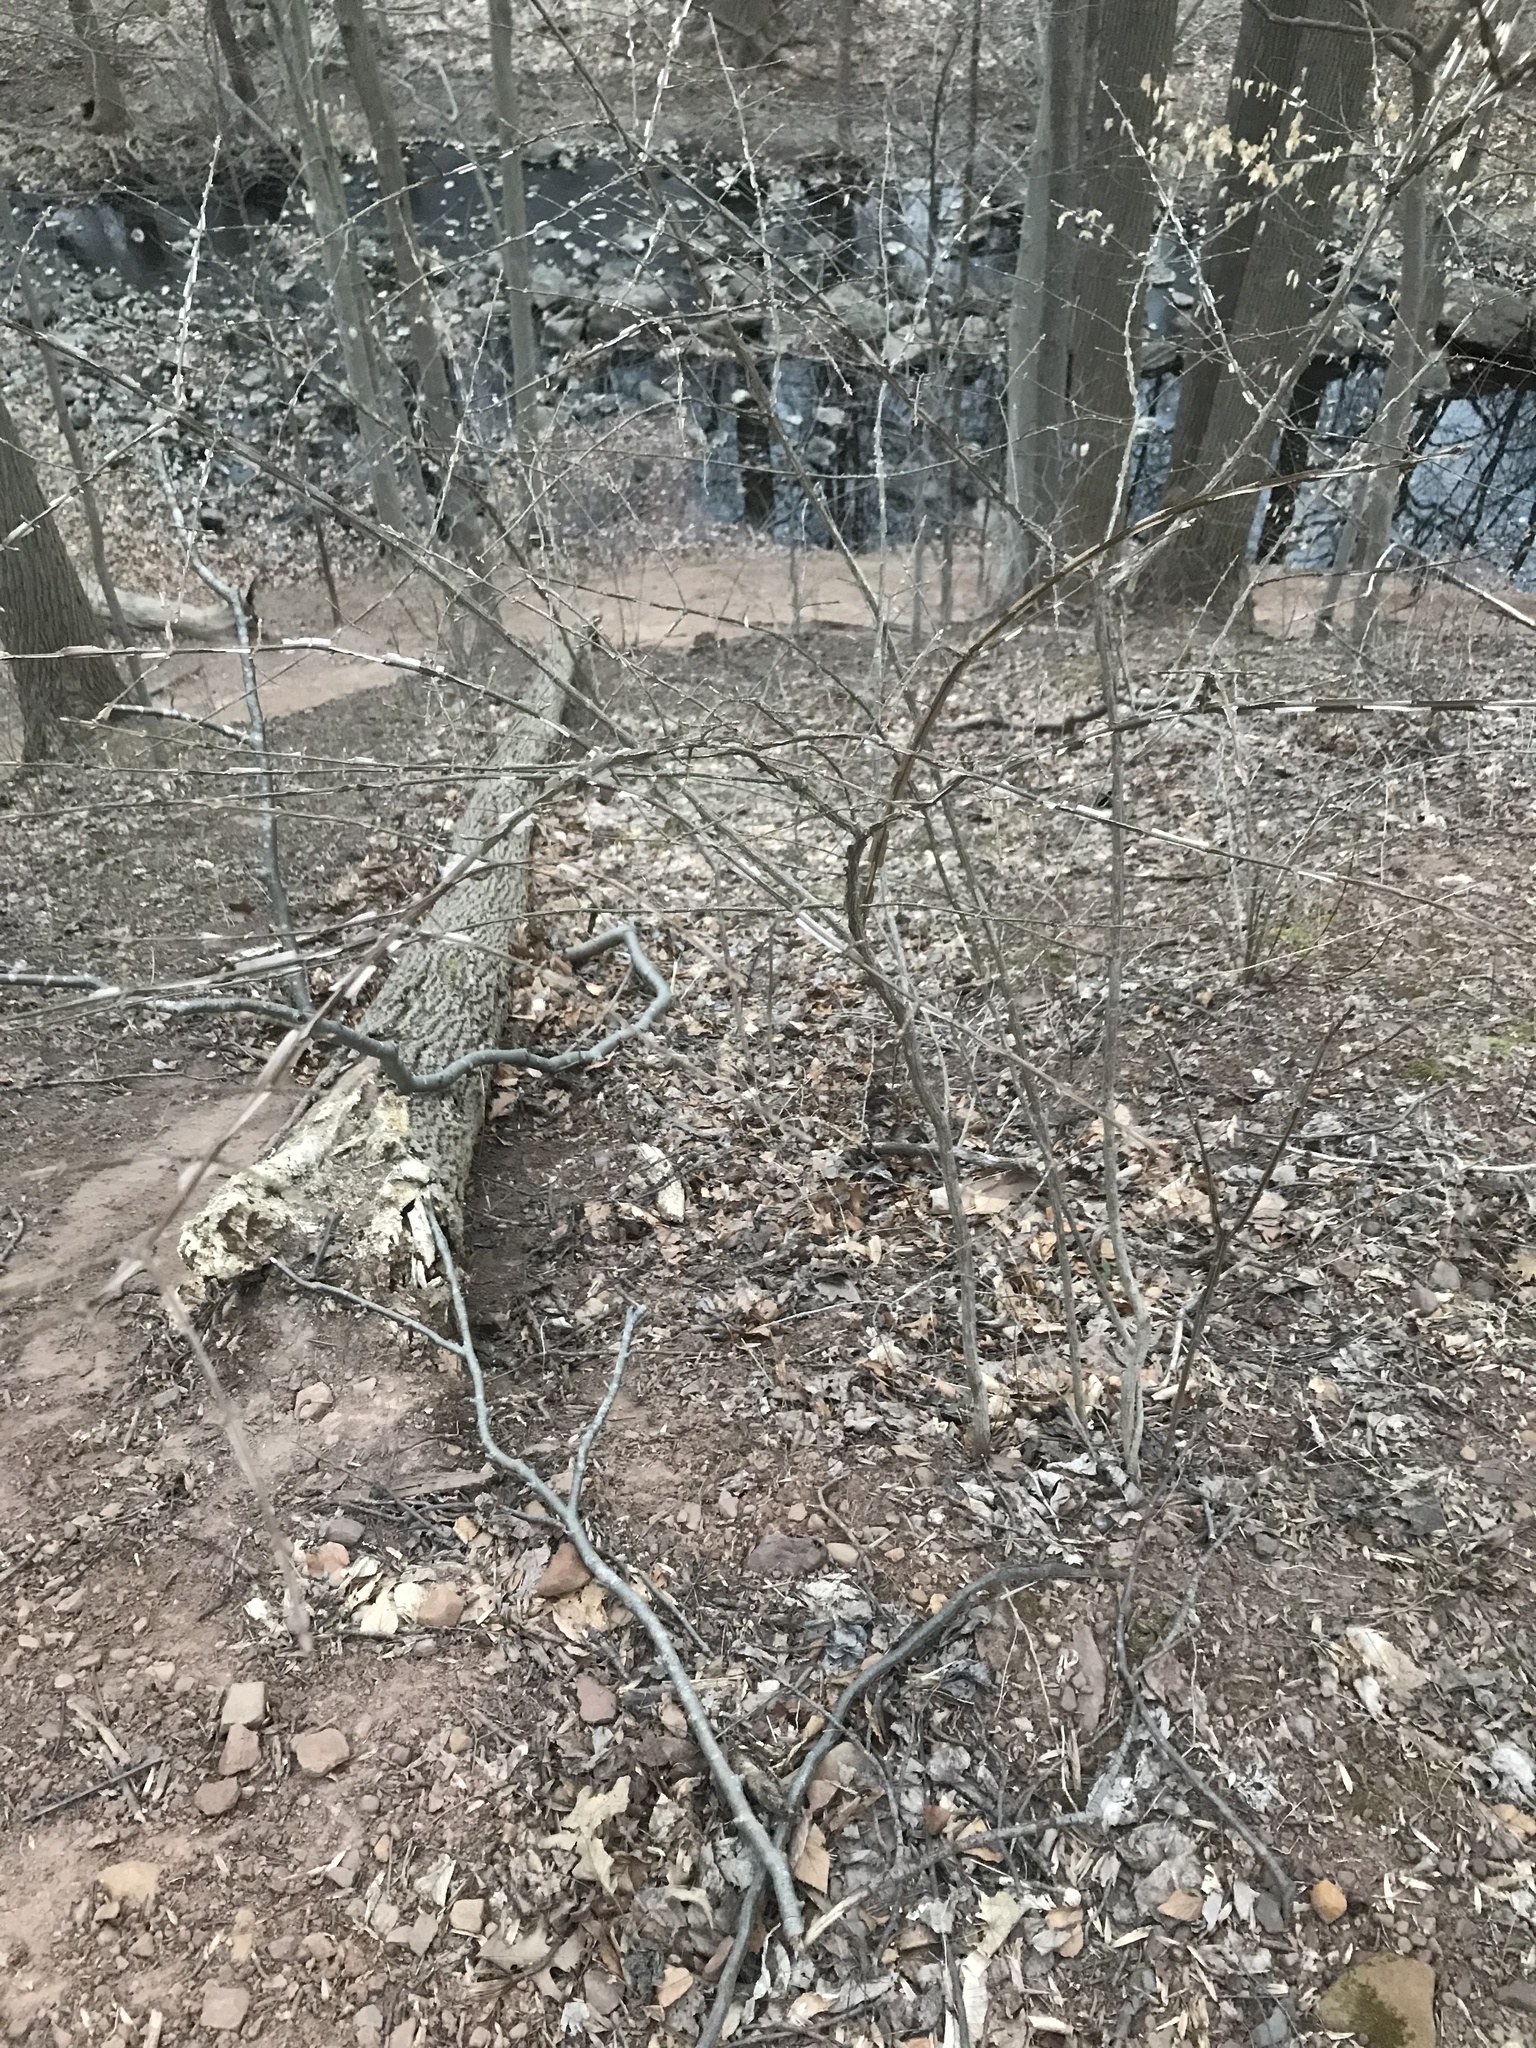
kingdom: Plantae
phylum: Tracheophyta
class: Magnoliopsida
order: Celastrales
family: Celastraceae
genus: Euonymus
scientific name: Euonymus alatus
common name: Winged euonymus
